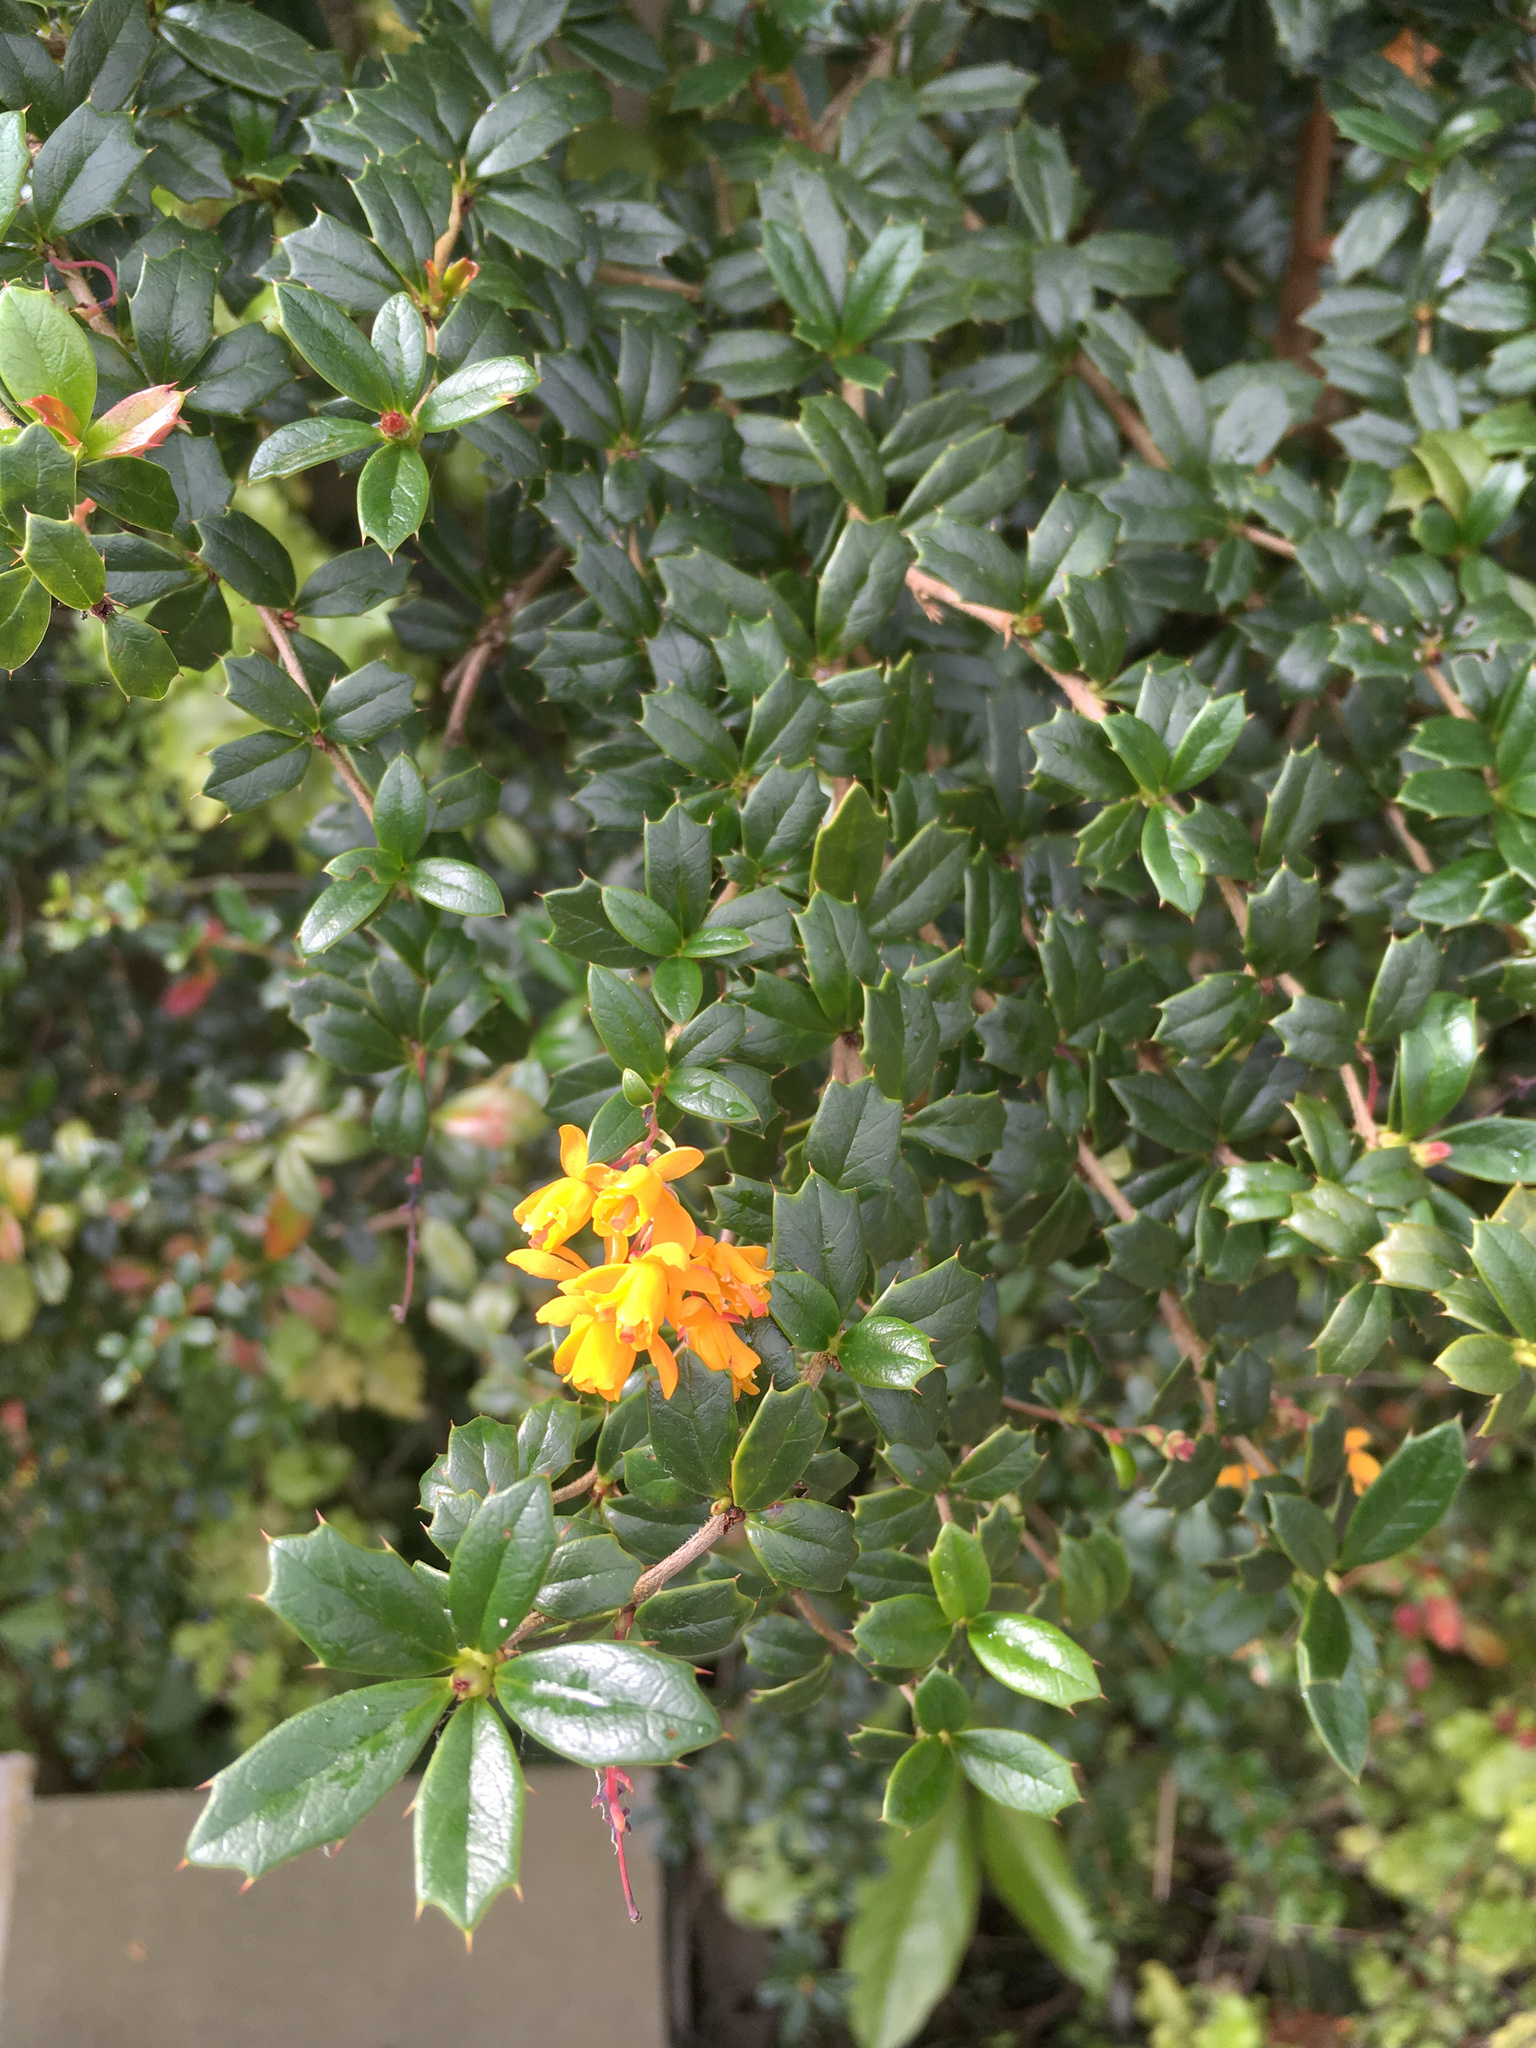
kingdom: Plantae
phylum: Tracheophyta
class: Magnoliopsida
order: Ranunculales
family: Berberidaceae
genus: Berberis
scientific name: Berberis darwinii
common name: Darwin's barberry
